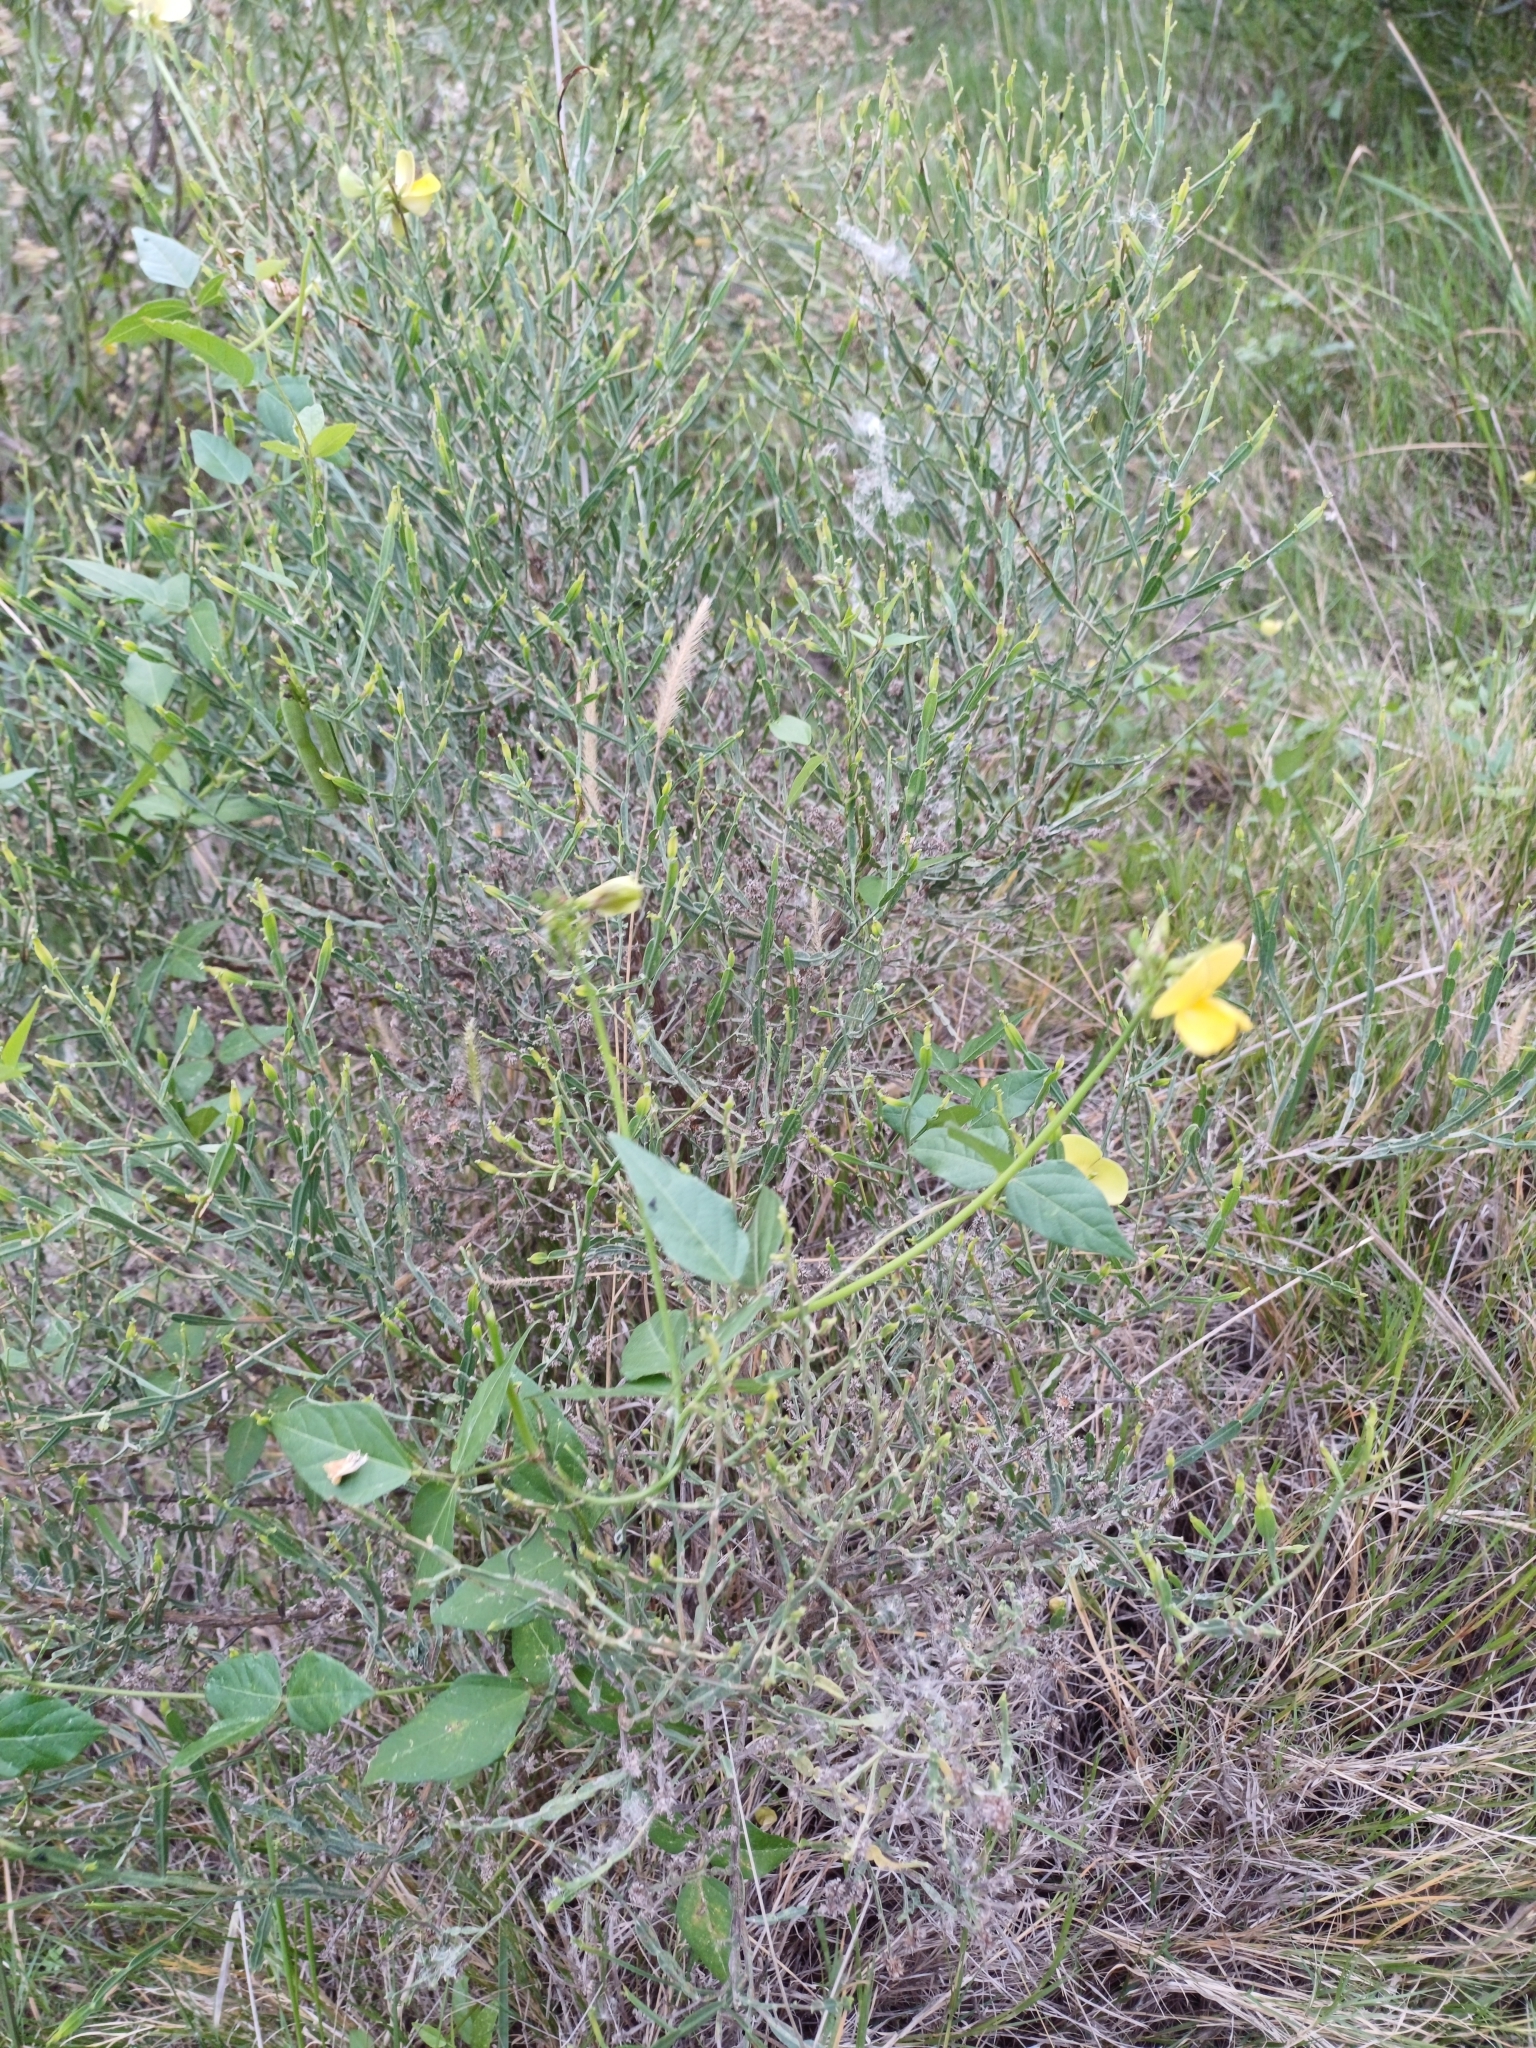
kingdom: Plantae
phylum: Tracheophyta
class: Magnoliopsida
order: Fabales
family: Fabaceae
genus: Vigna
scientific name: Vigna luteola
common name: Hairypod cowpea
